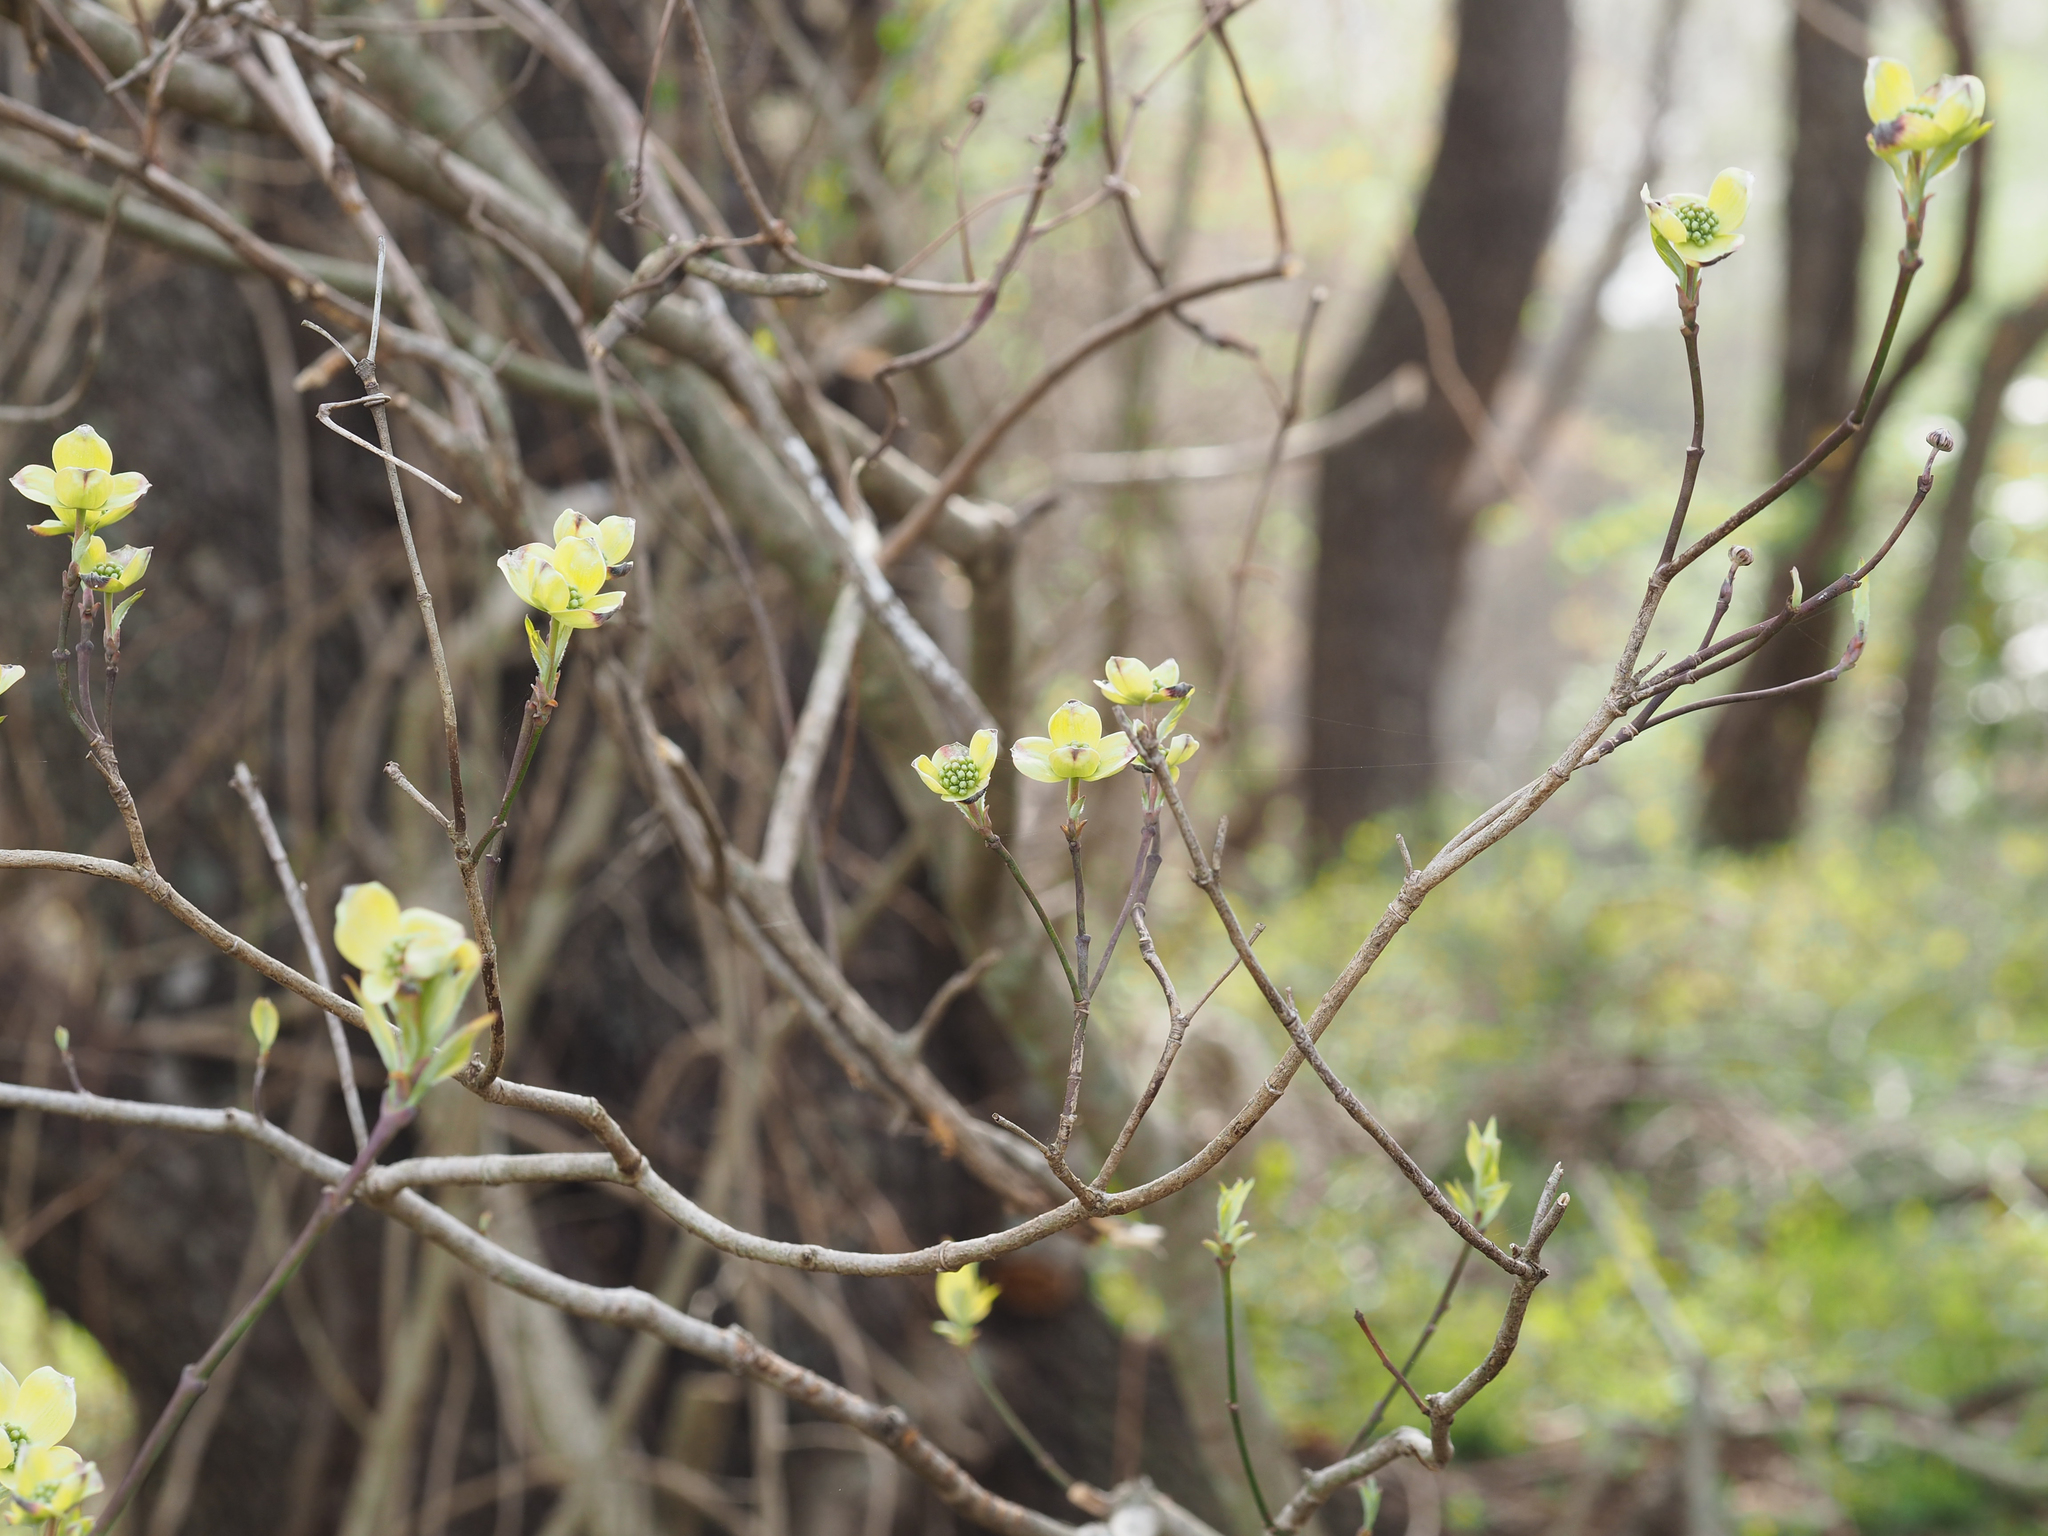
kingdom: Plantae
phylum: Tracheophyta
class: Magnoliopsida
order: Cornales
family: Cornaceae
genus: Cornus
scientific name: Cornus florida
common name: Flowering dogwood
